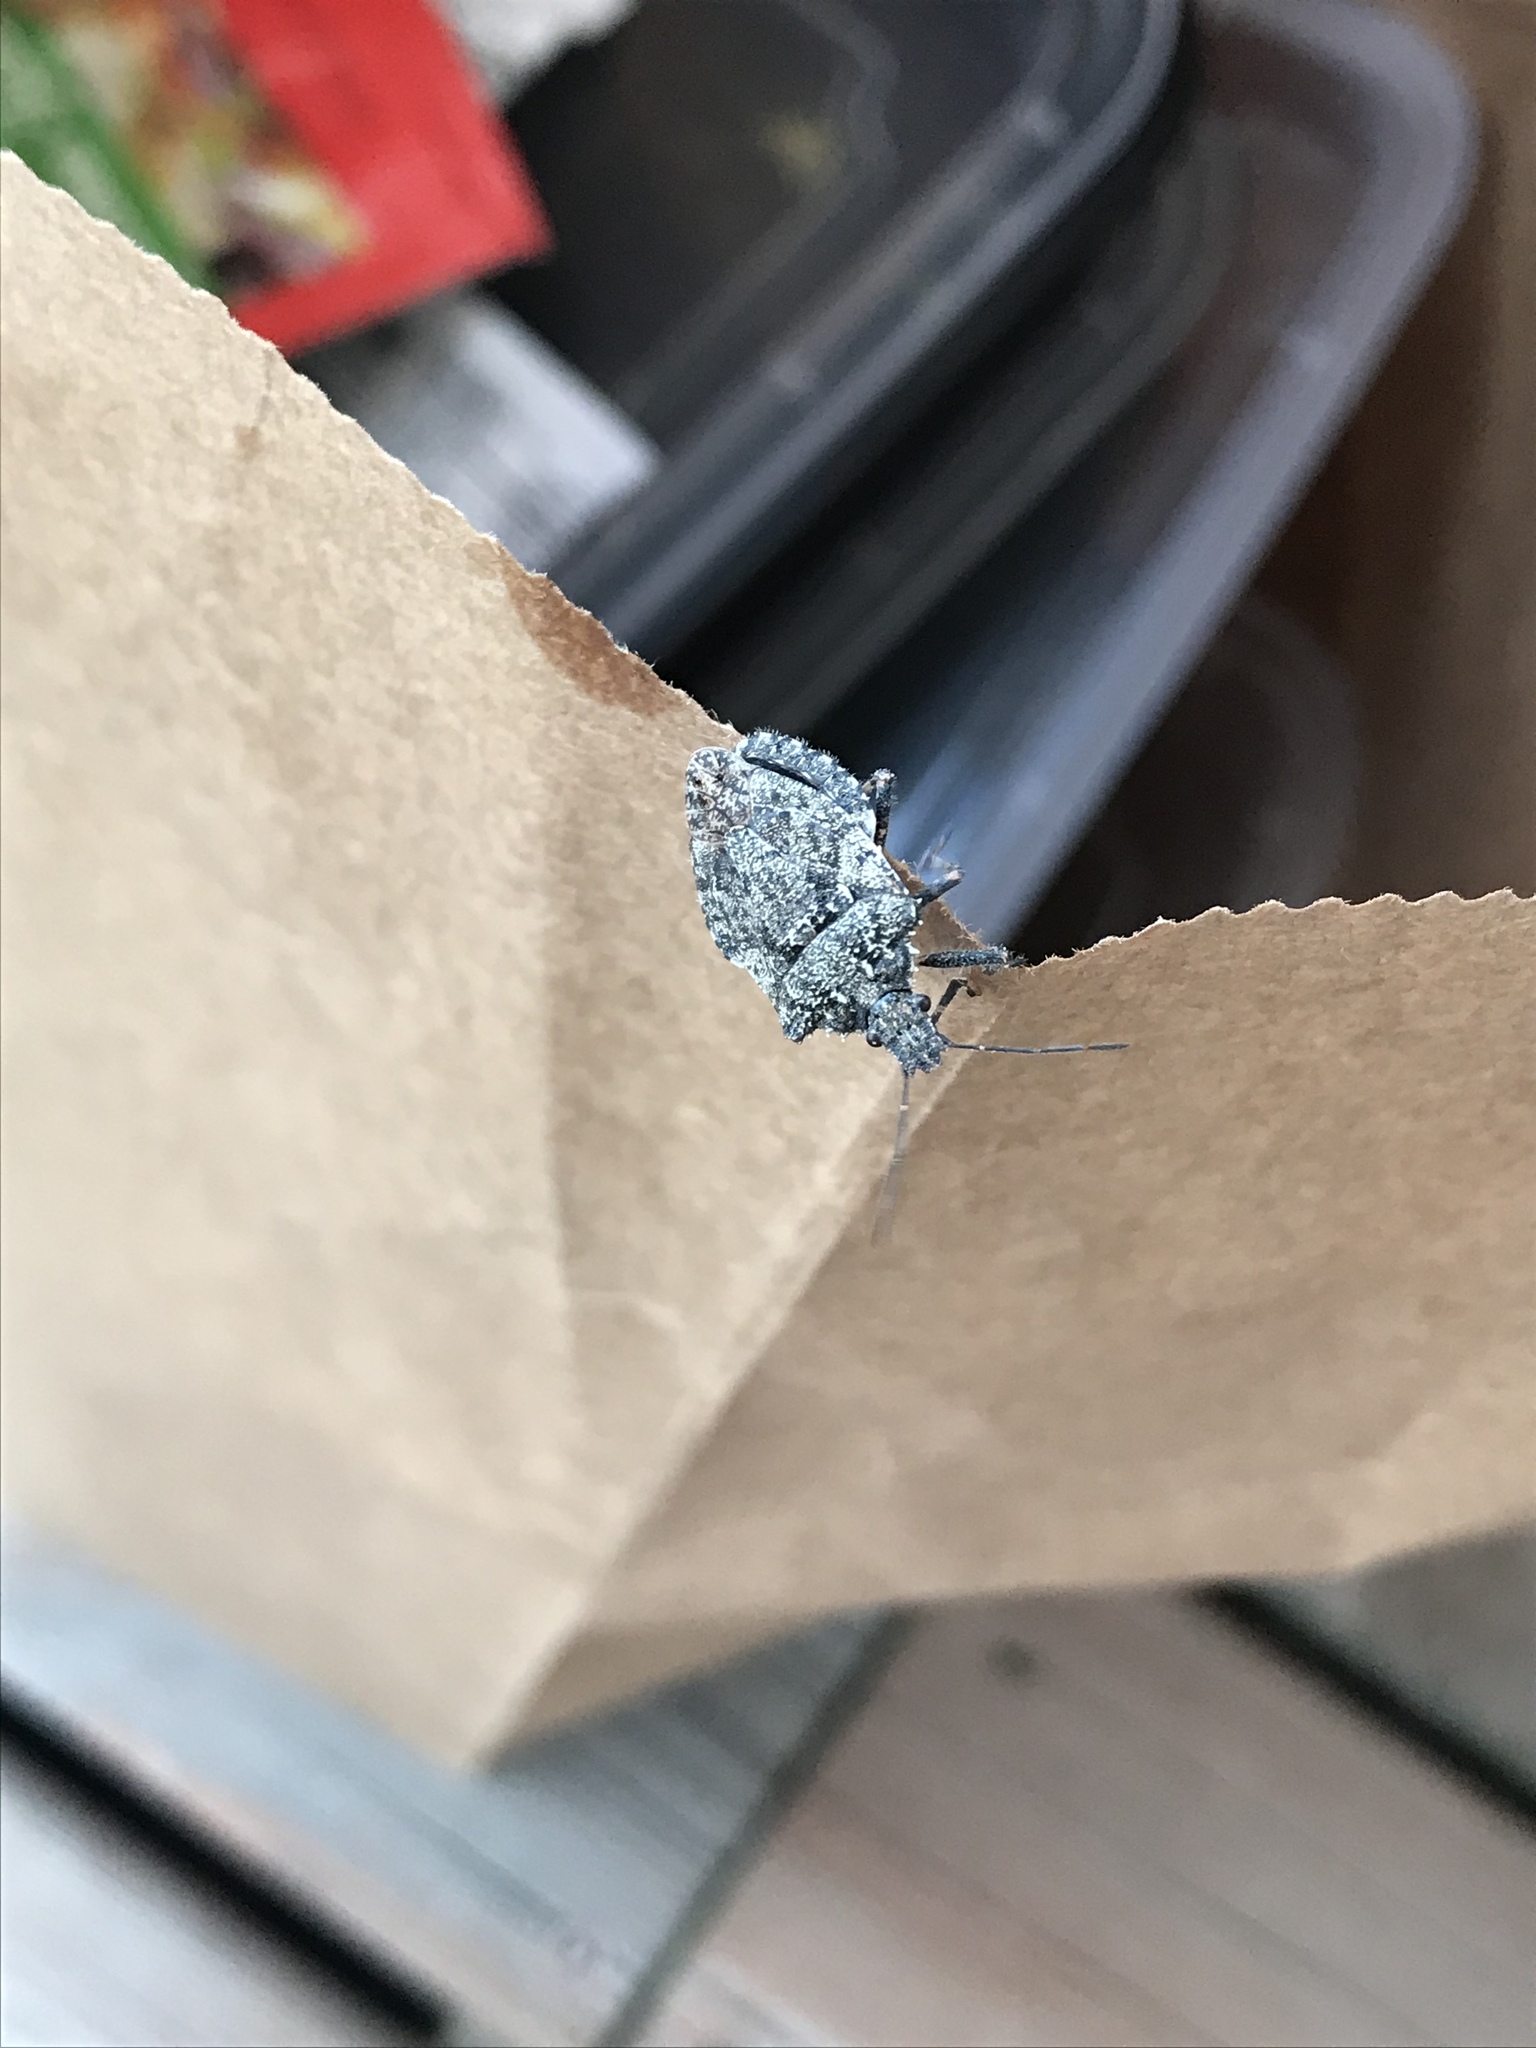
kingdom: Animalia
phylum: Arthropoda
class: Insecta
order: Hemiptera
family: Pentatomidae
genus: Brochymena
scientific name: Brochymena arborea
